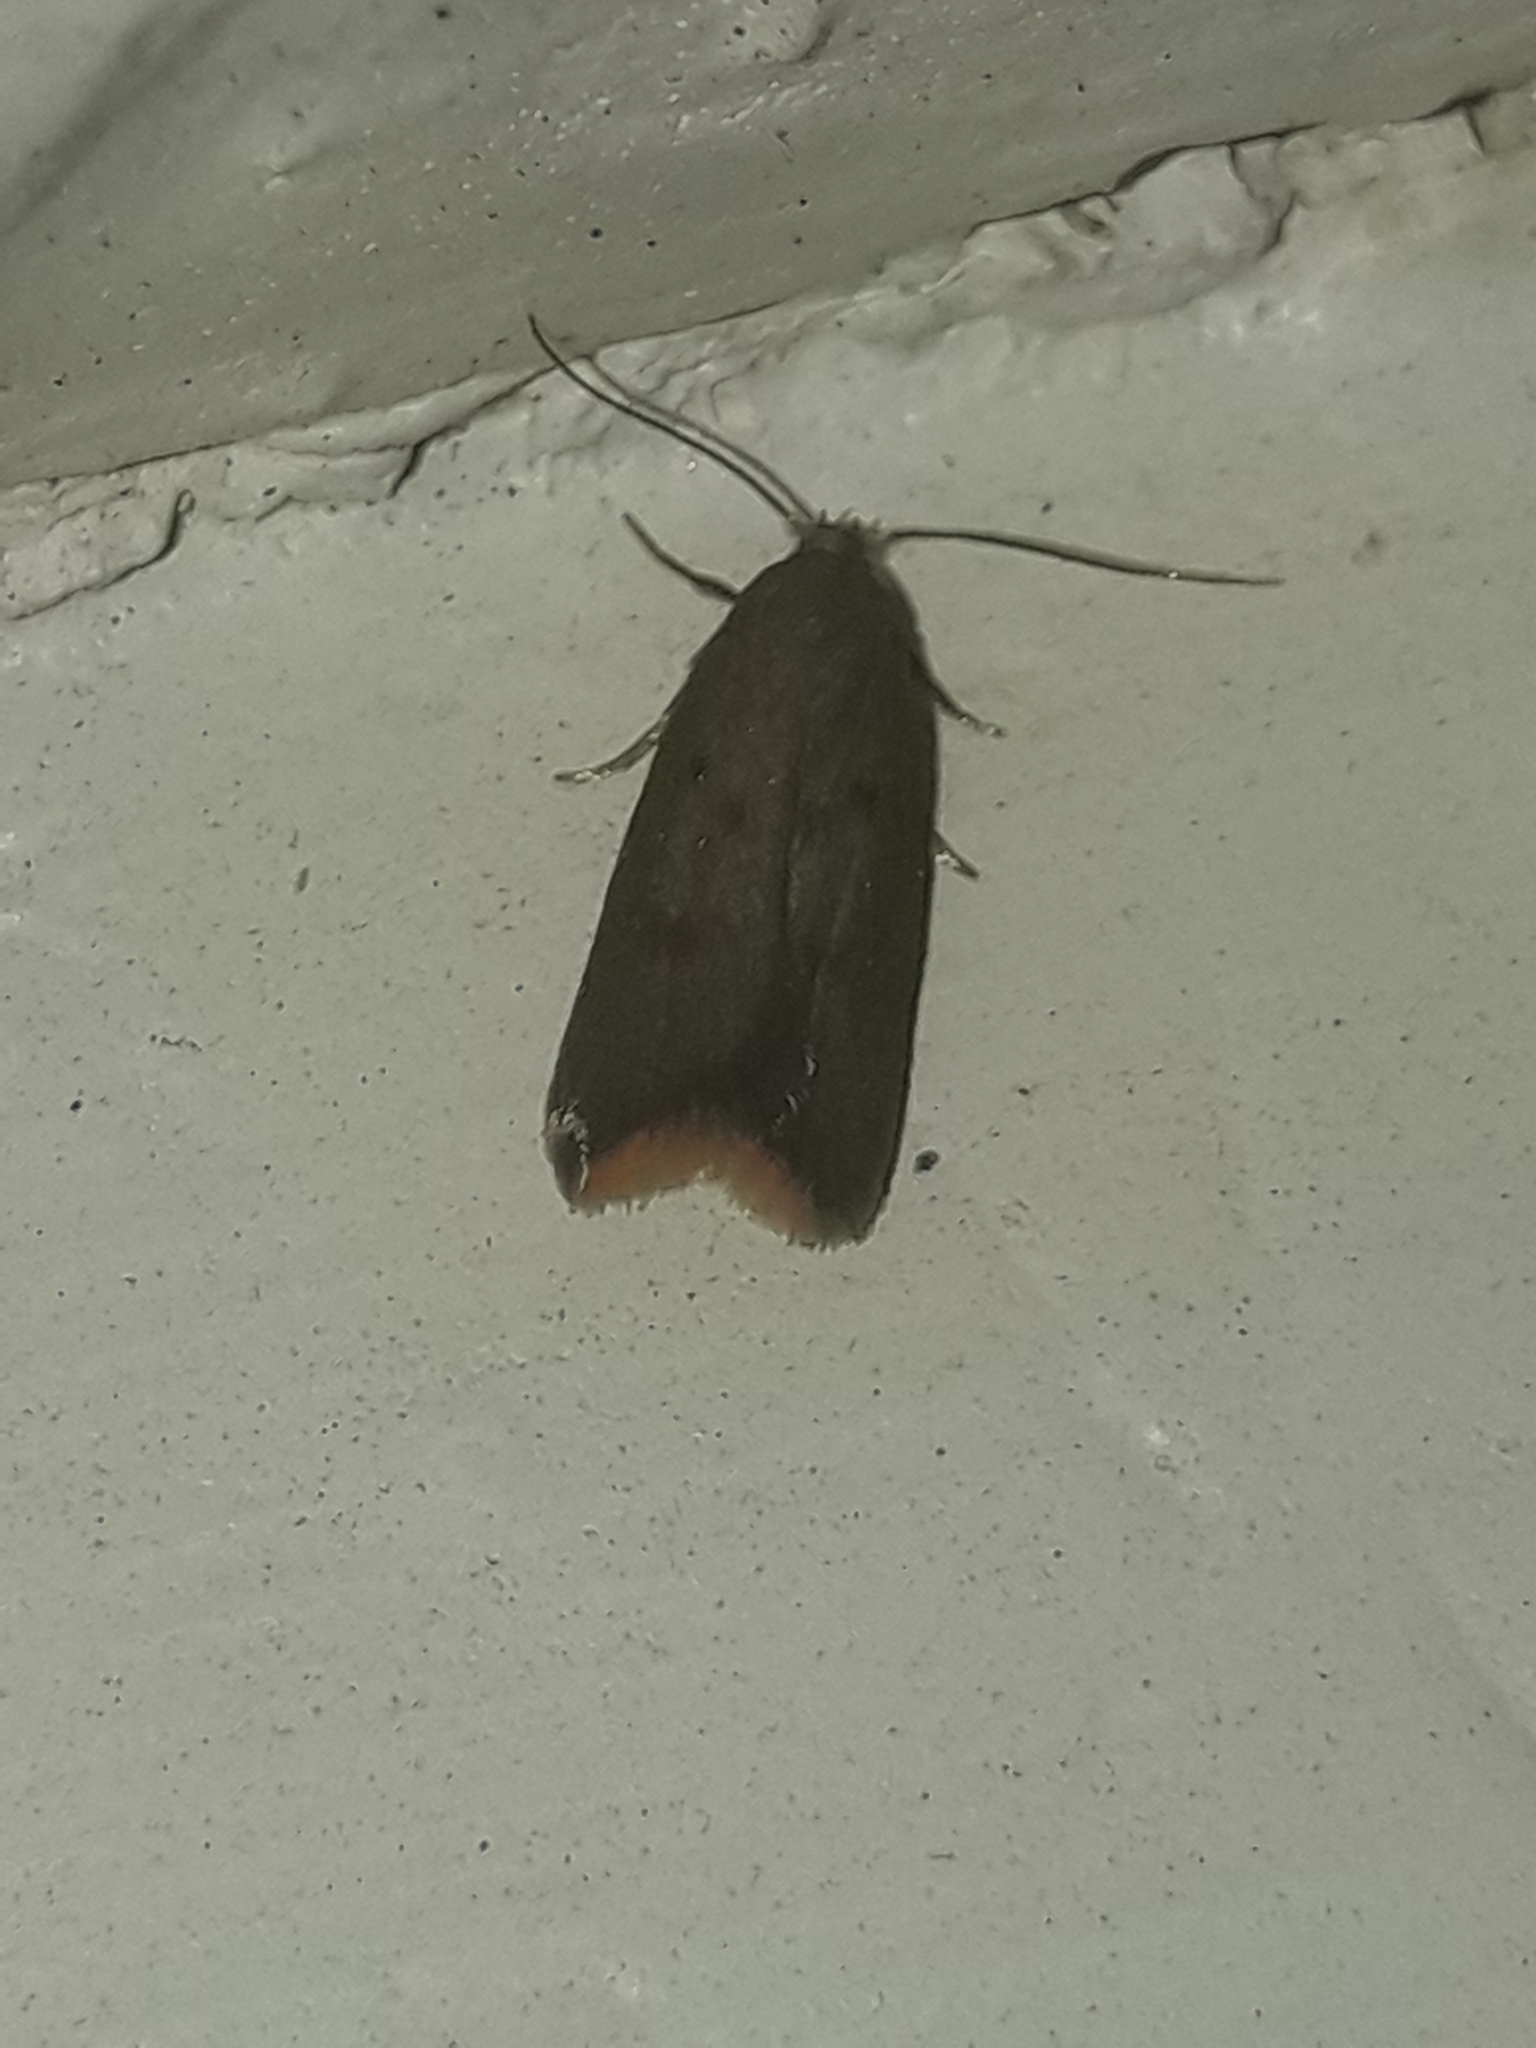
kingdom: Animalia
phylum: Arthropoda
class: Insecta
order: Lepidoptera
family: Oecophoridae
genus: Tachystola
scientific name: Tachystola acroxantha
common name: Ruddy streak
